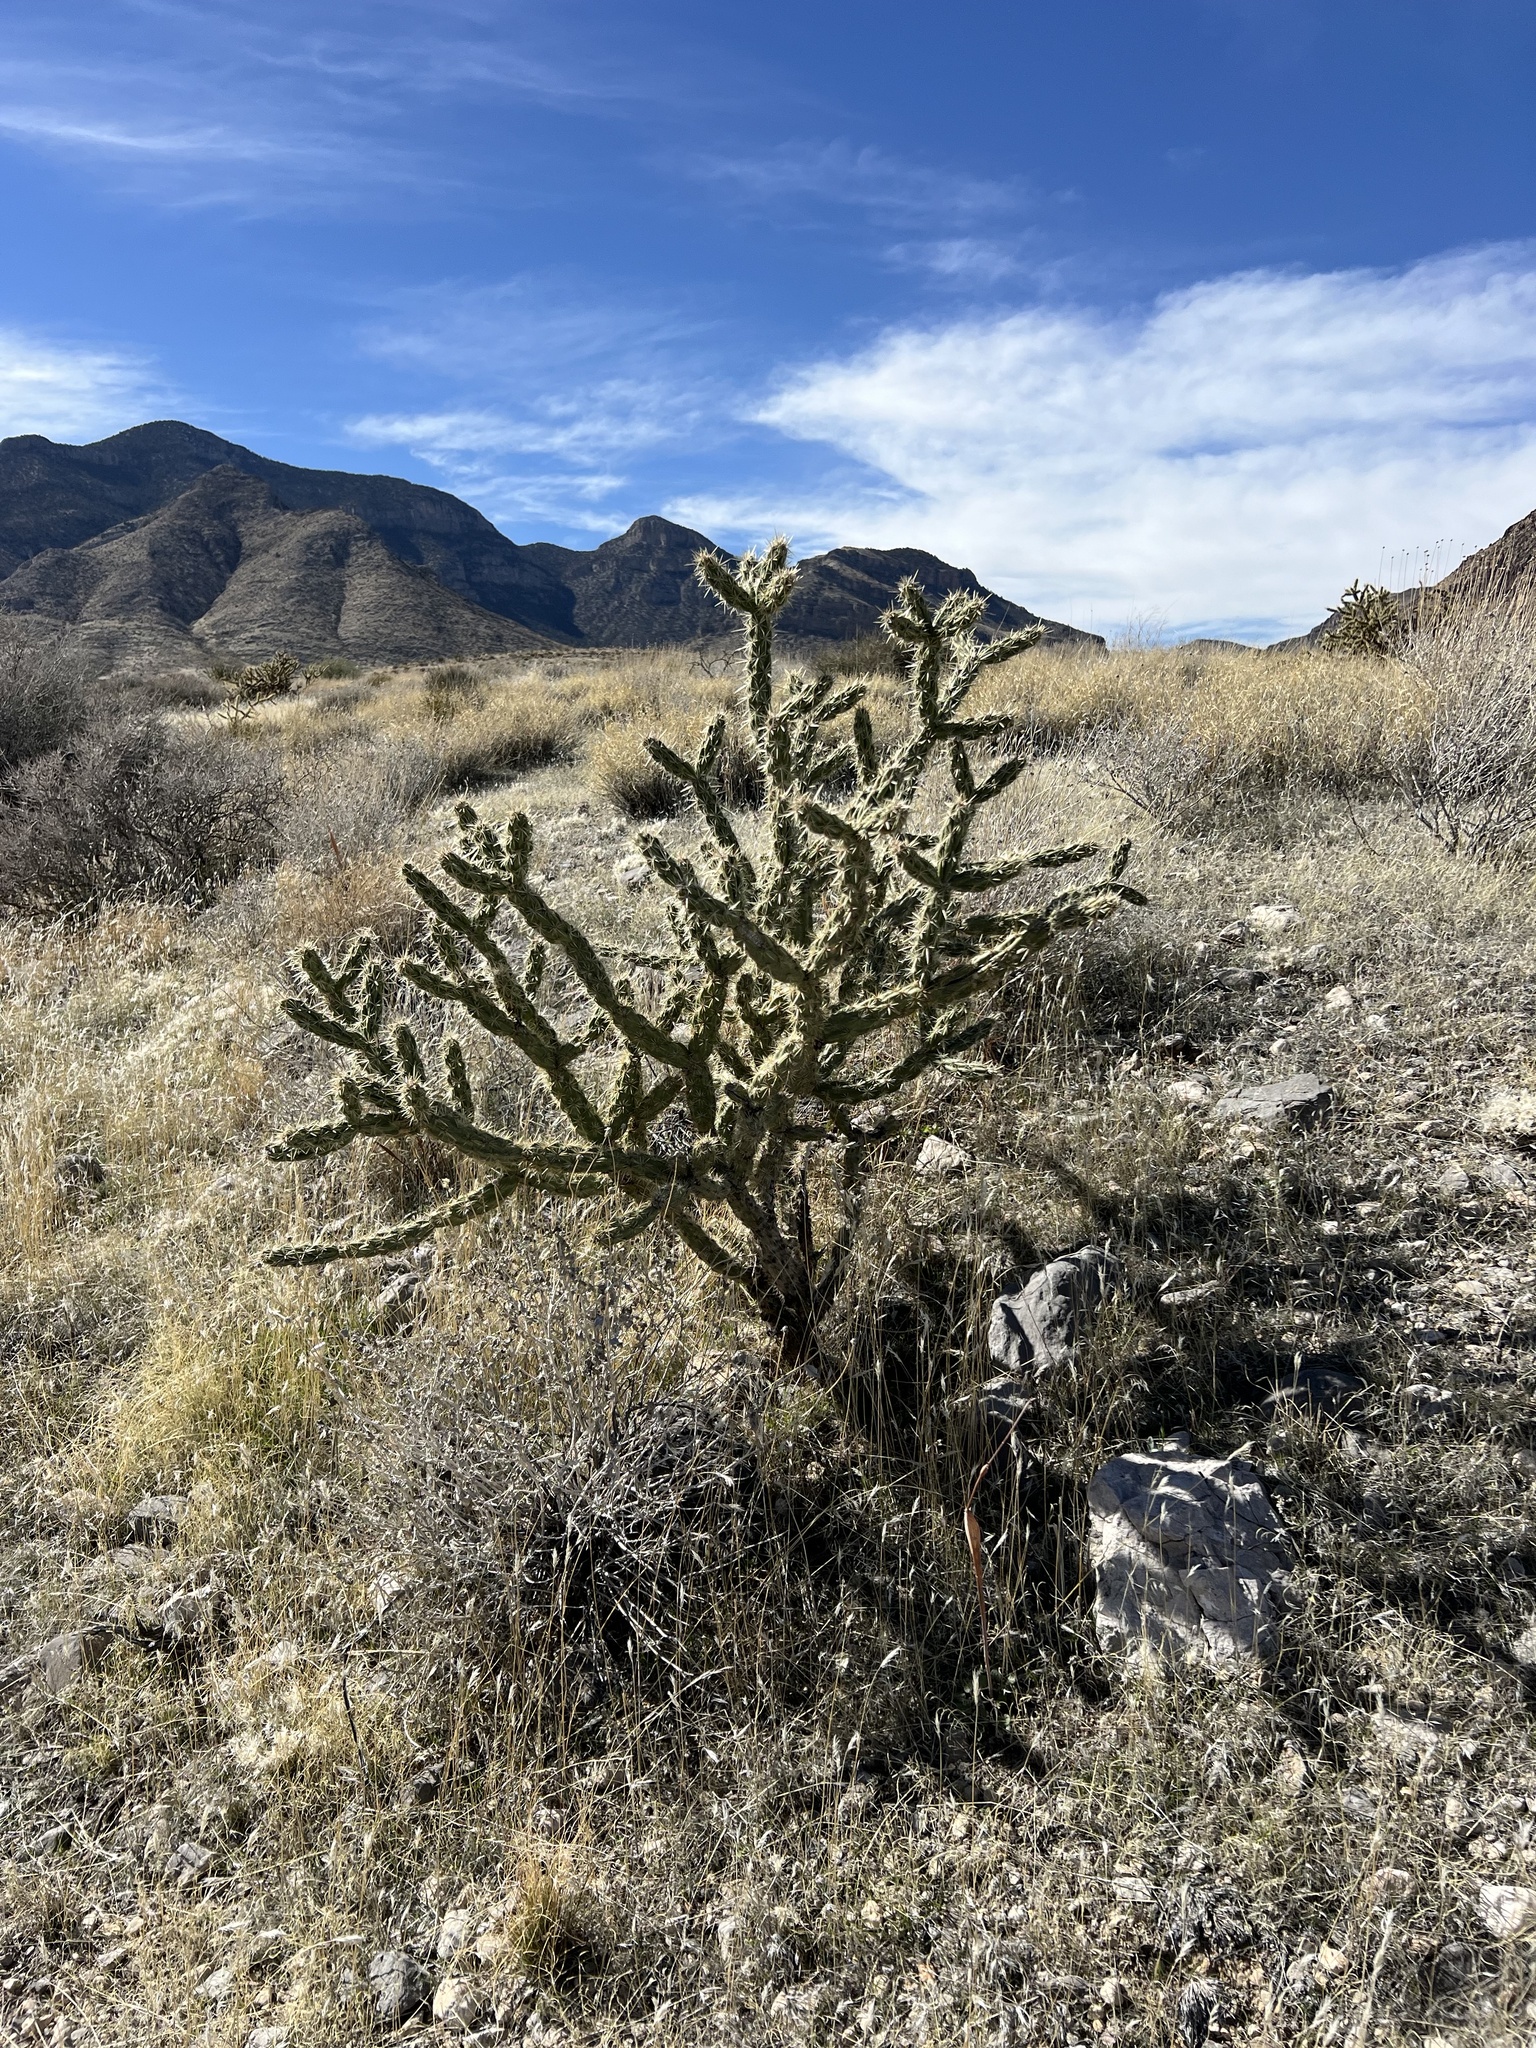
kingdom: Plantae
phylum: Tracheophyta
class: Magnoliopsida
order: Caryophyllales
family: Cactaceae
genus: Cylindropuntia
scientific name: Cylindropuntia acanthocarpa
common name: Buckhorn cholla
